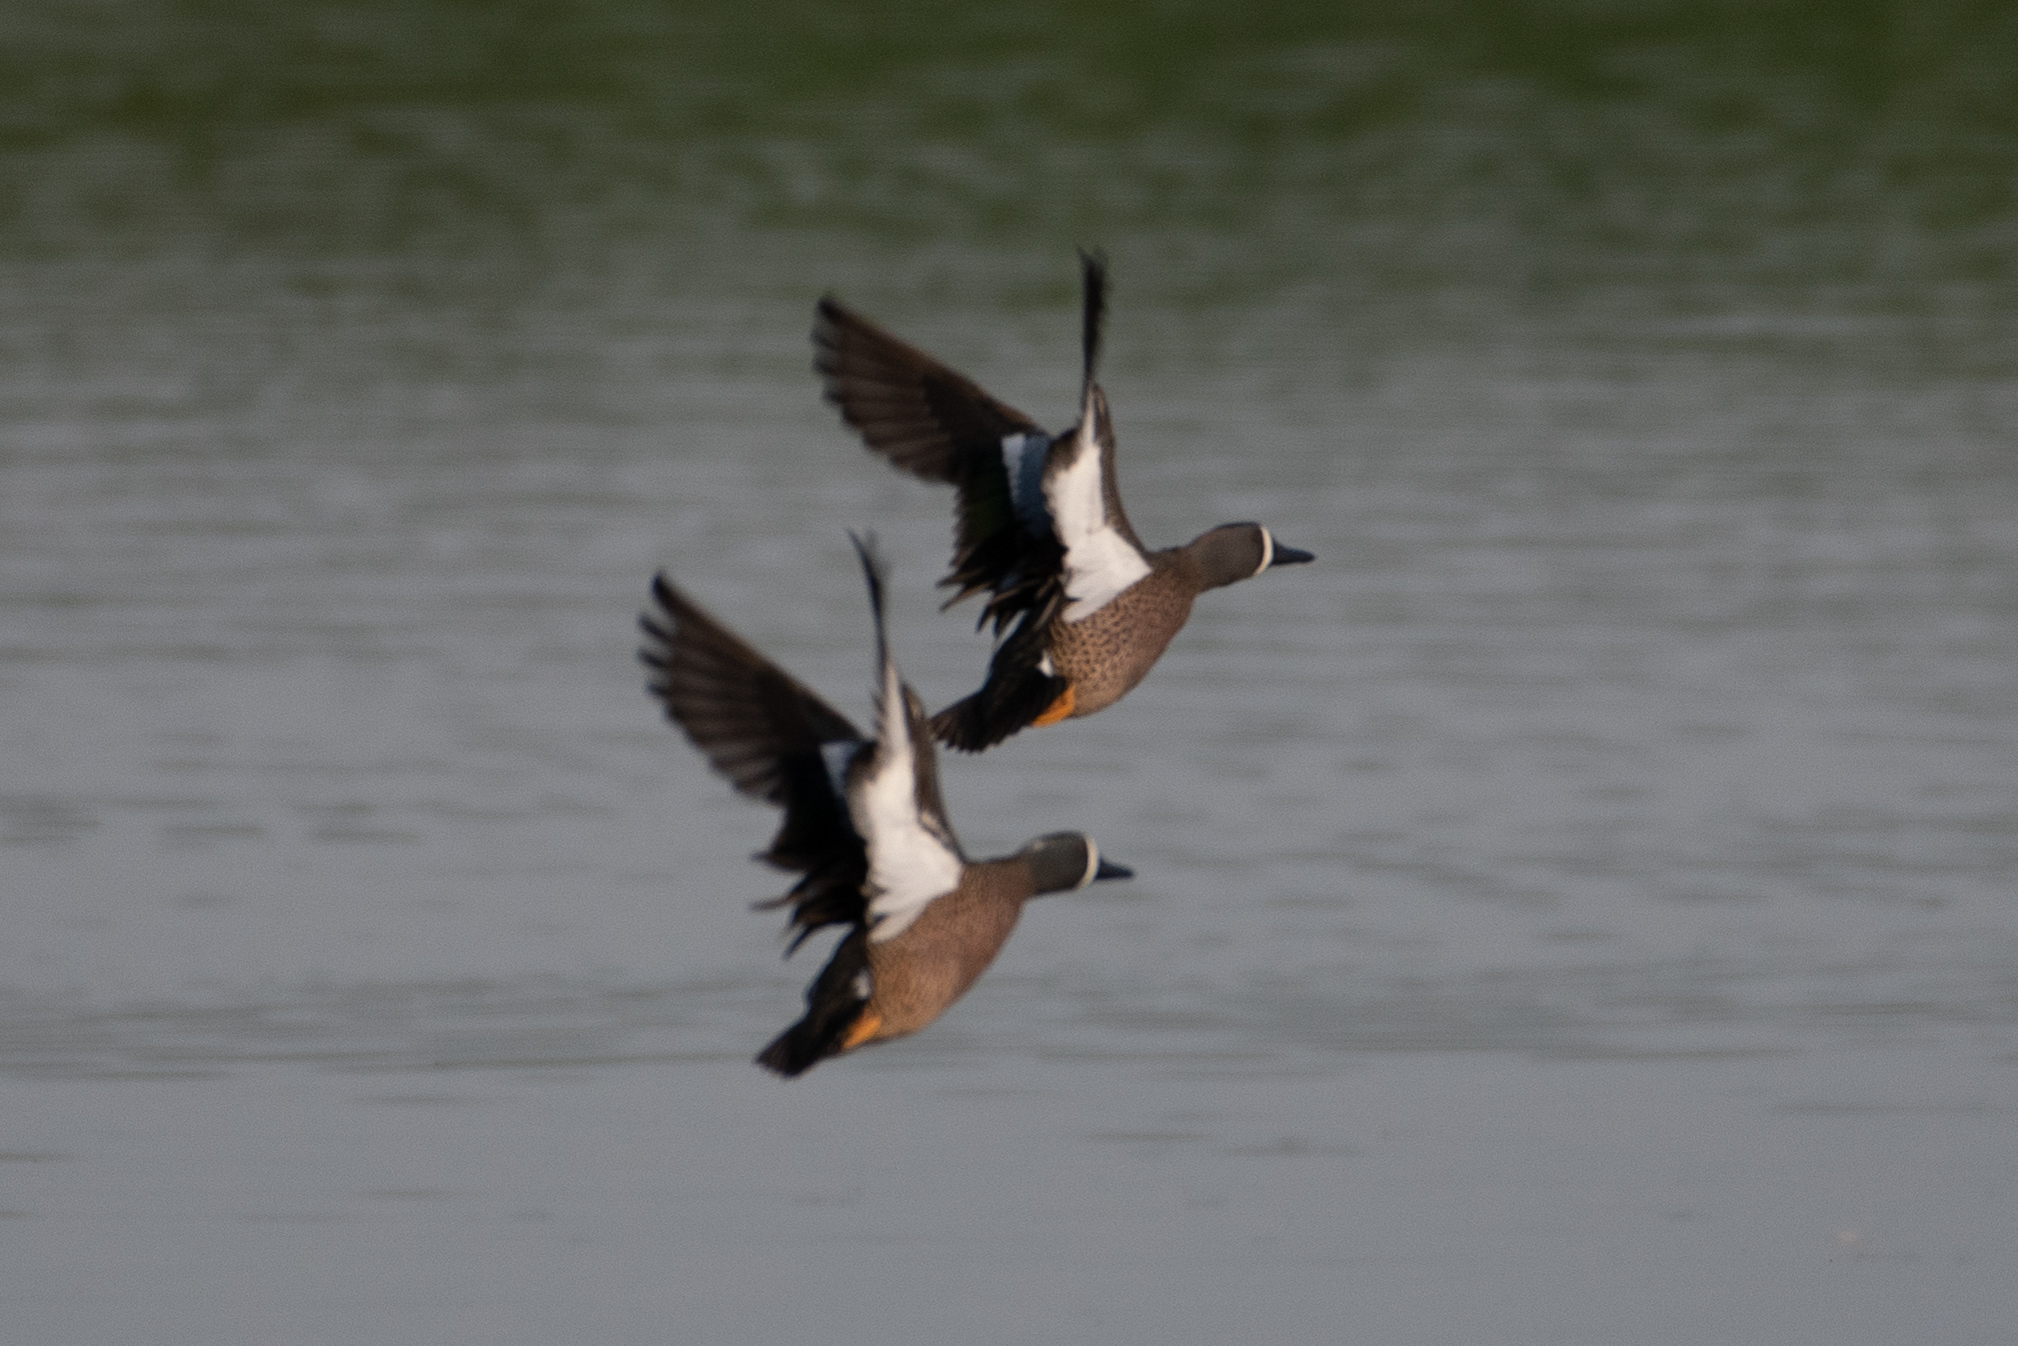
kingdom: Animalia
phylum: Chordata
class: Aves
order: Anseriformes
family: Anatidae
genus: Spatula
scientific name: Spatula discors
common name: Blue-winged teal
